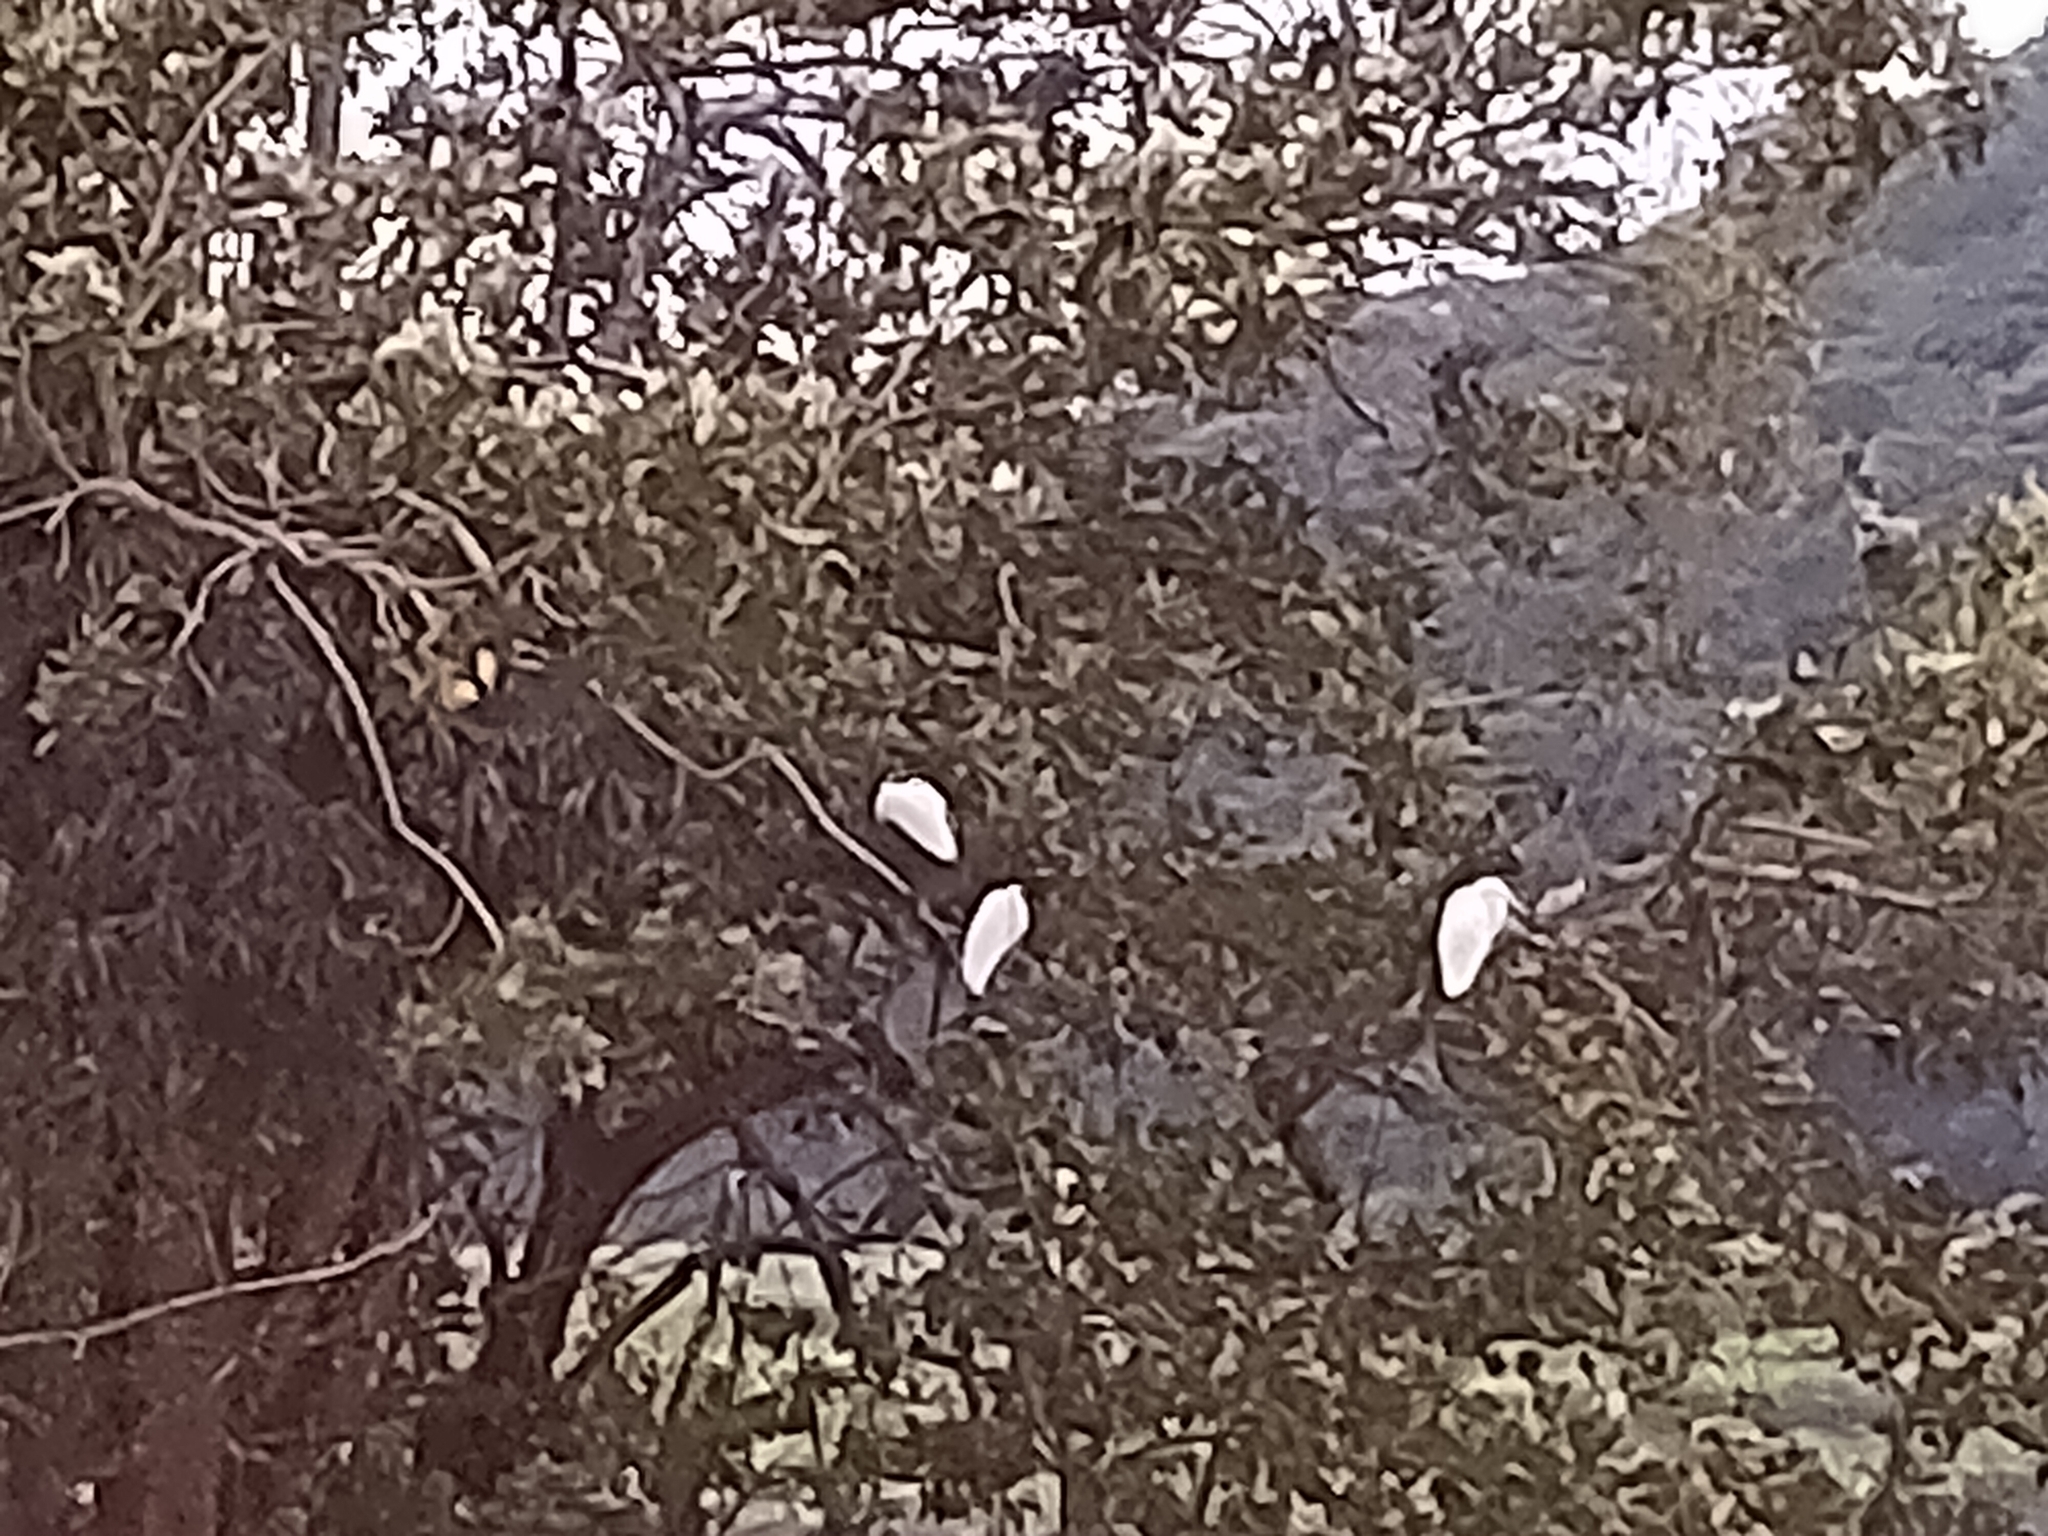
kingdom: Animalia
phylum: Chordata
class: Aves
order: Pelecaniformes
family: Ardeidae
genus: Ardea
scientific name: Ardea alba
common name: Great egret
